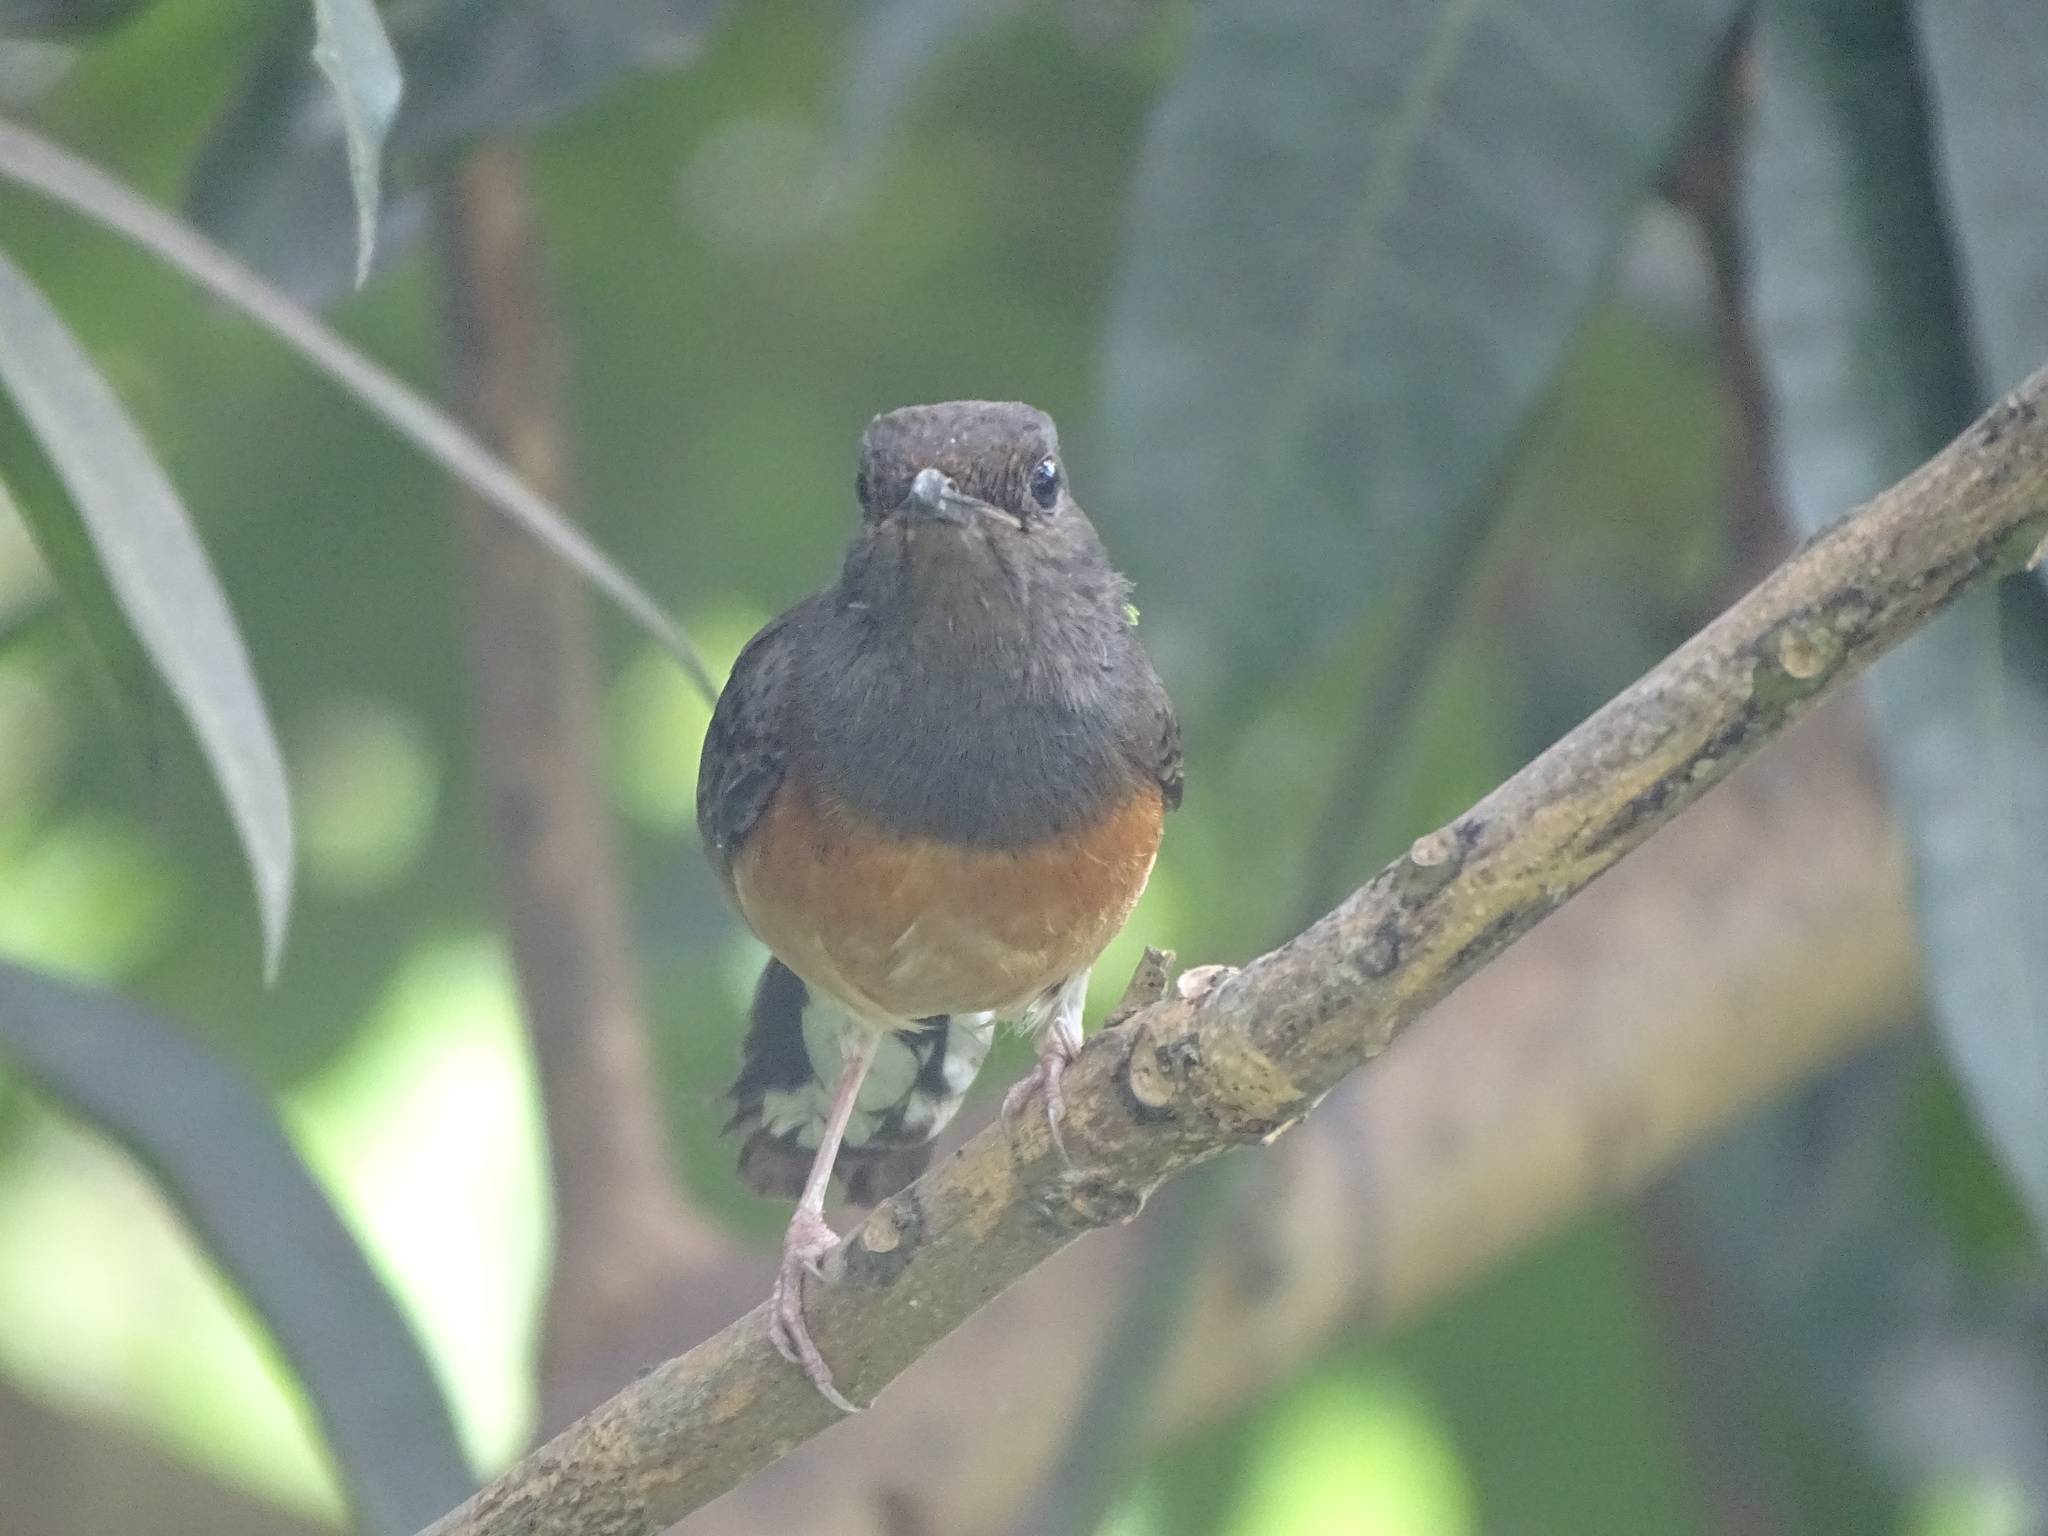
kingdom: Animalia
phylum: Chordata
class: Aves
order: Passeriformes
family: Muscicapidae
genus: Copsychus
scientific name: Copsychus malabaricus
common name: White-rumped shama
